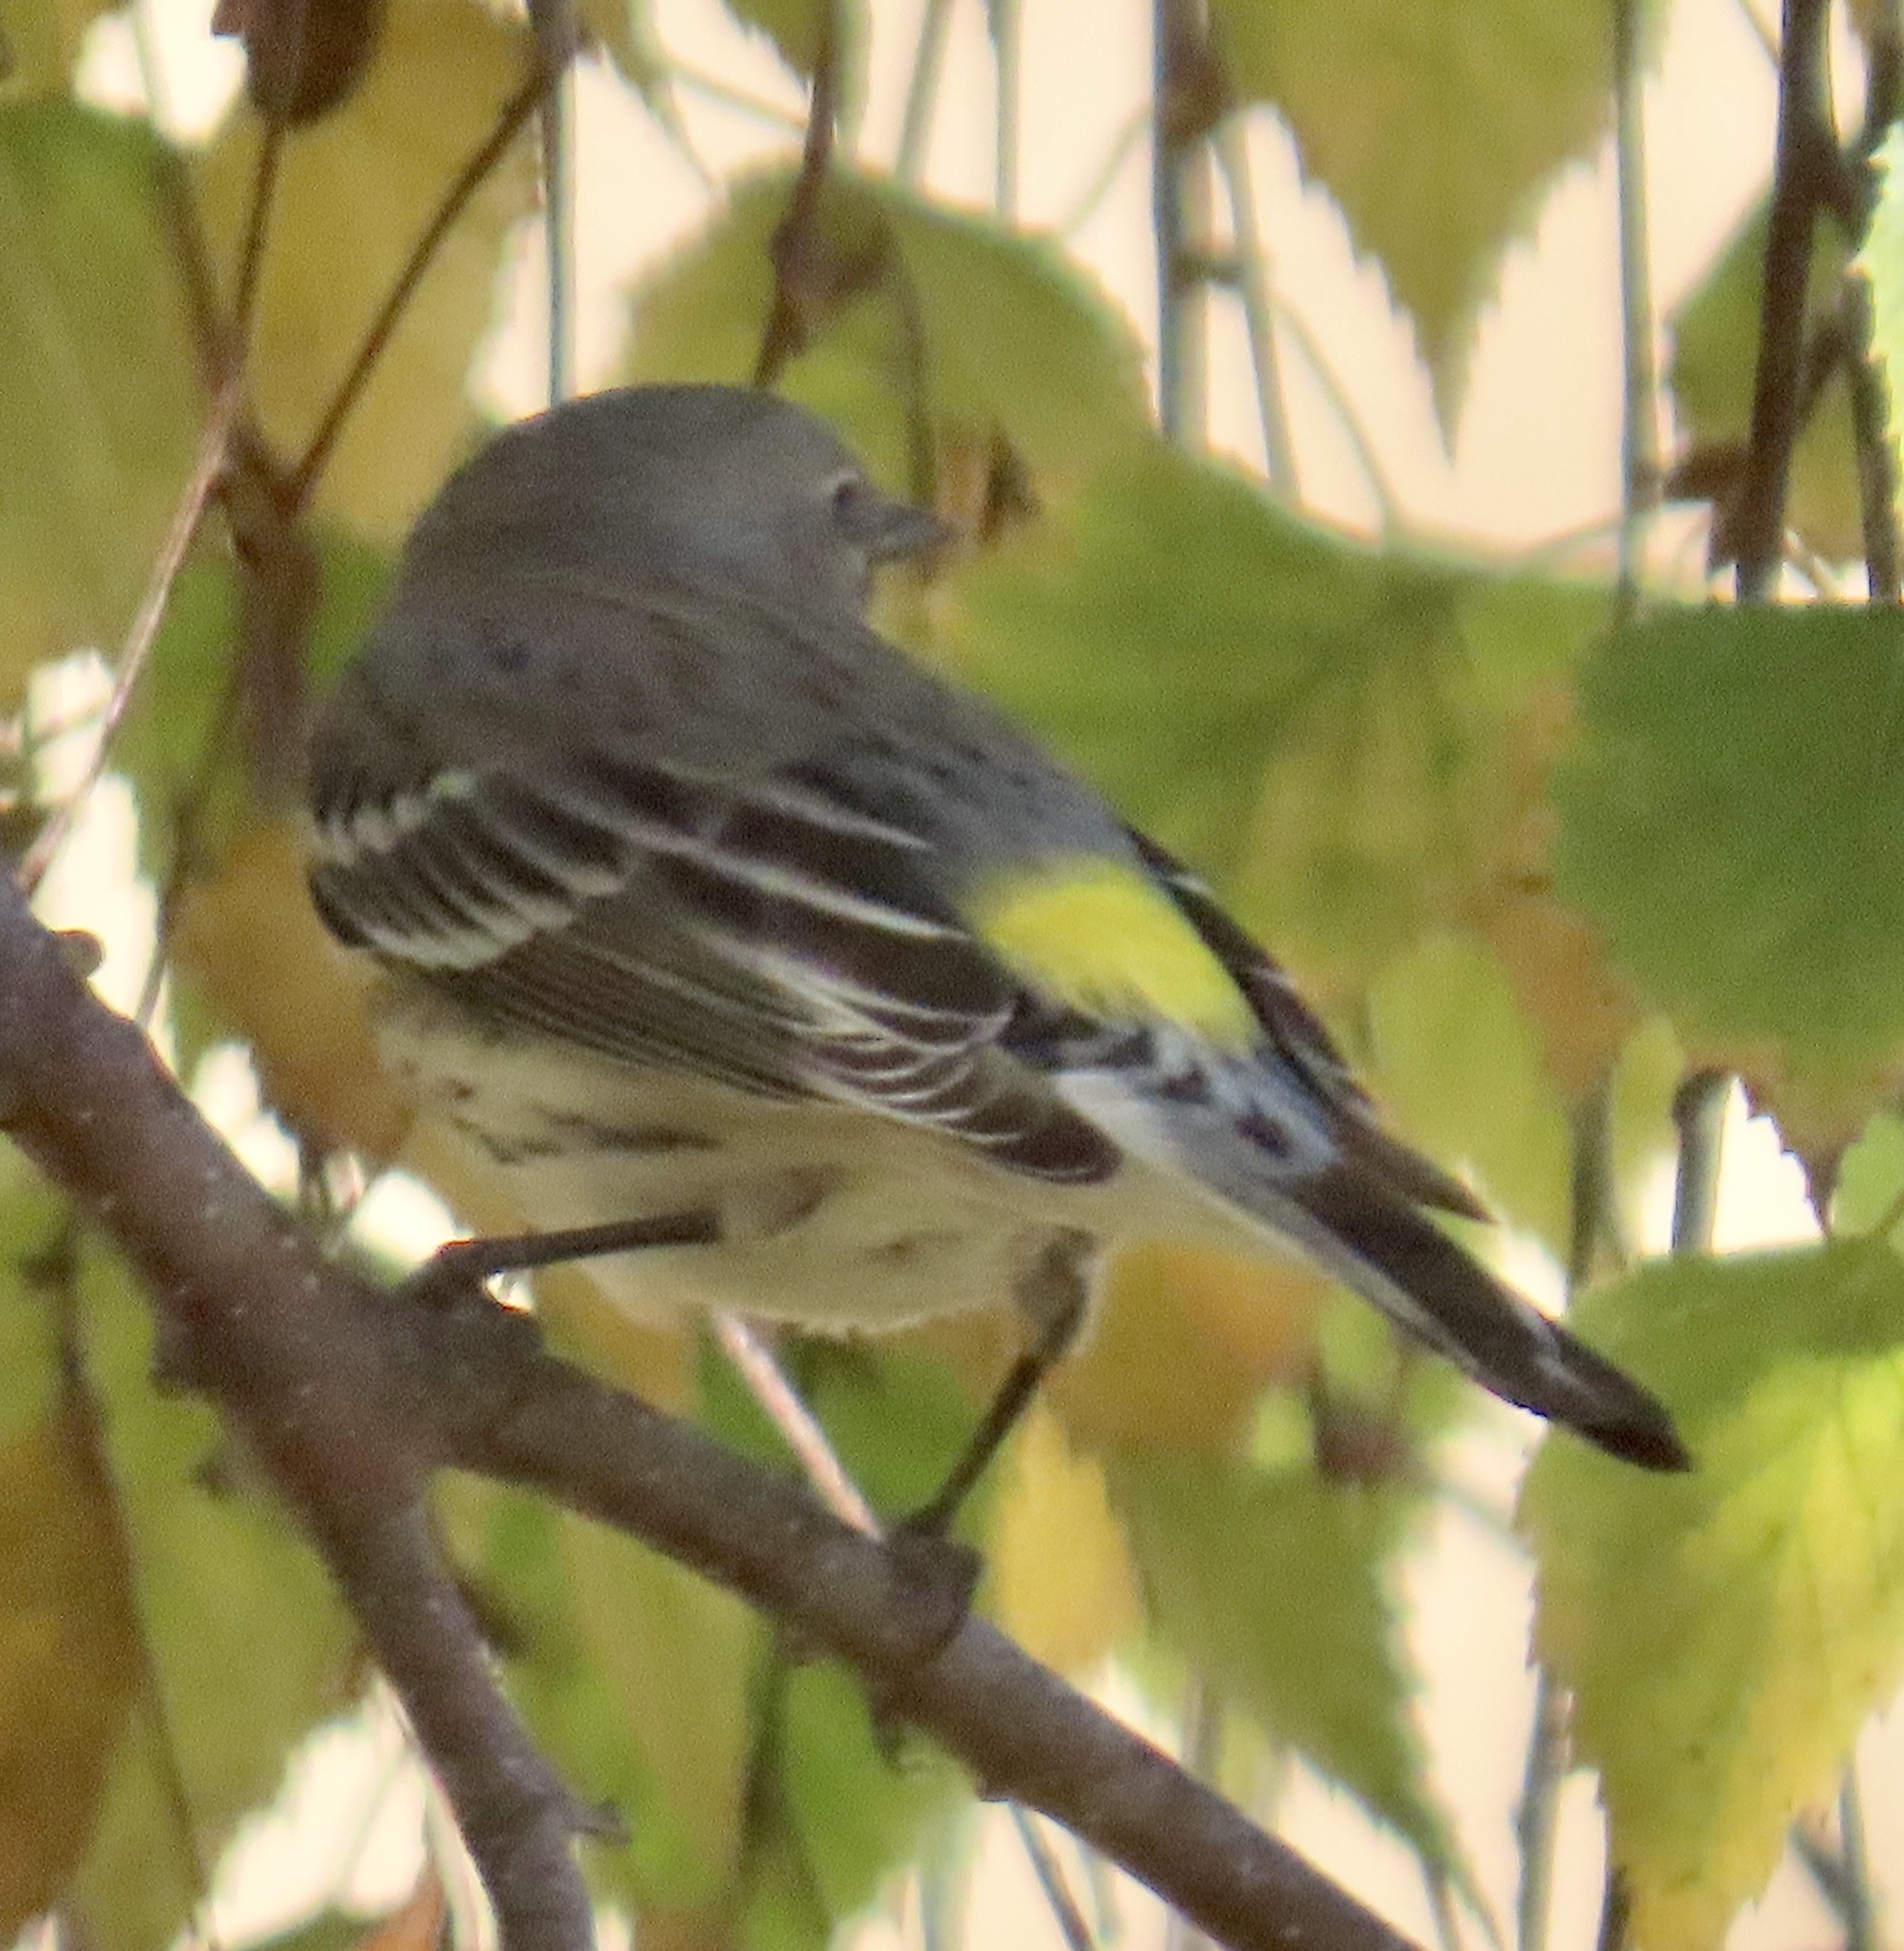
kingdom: Animalia
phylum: Chordata
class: Aves
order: Passeriformes
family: Parulidae
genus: Setophaga
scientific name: Setophaga coronata
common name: Myrtle warbler
